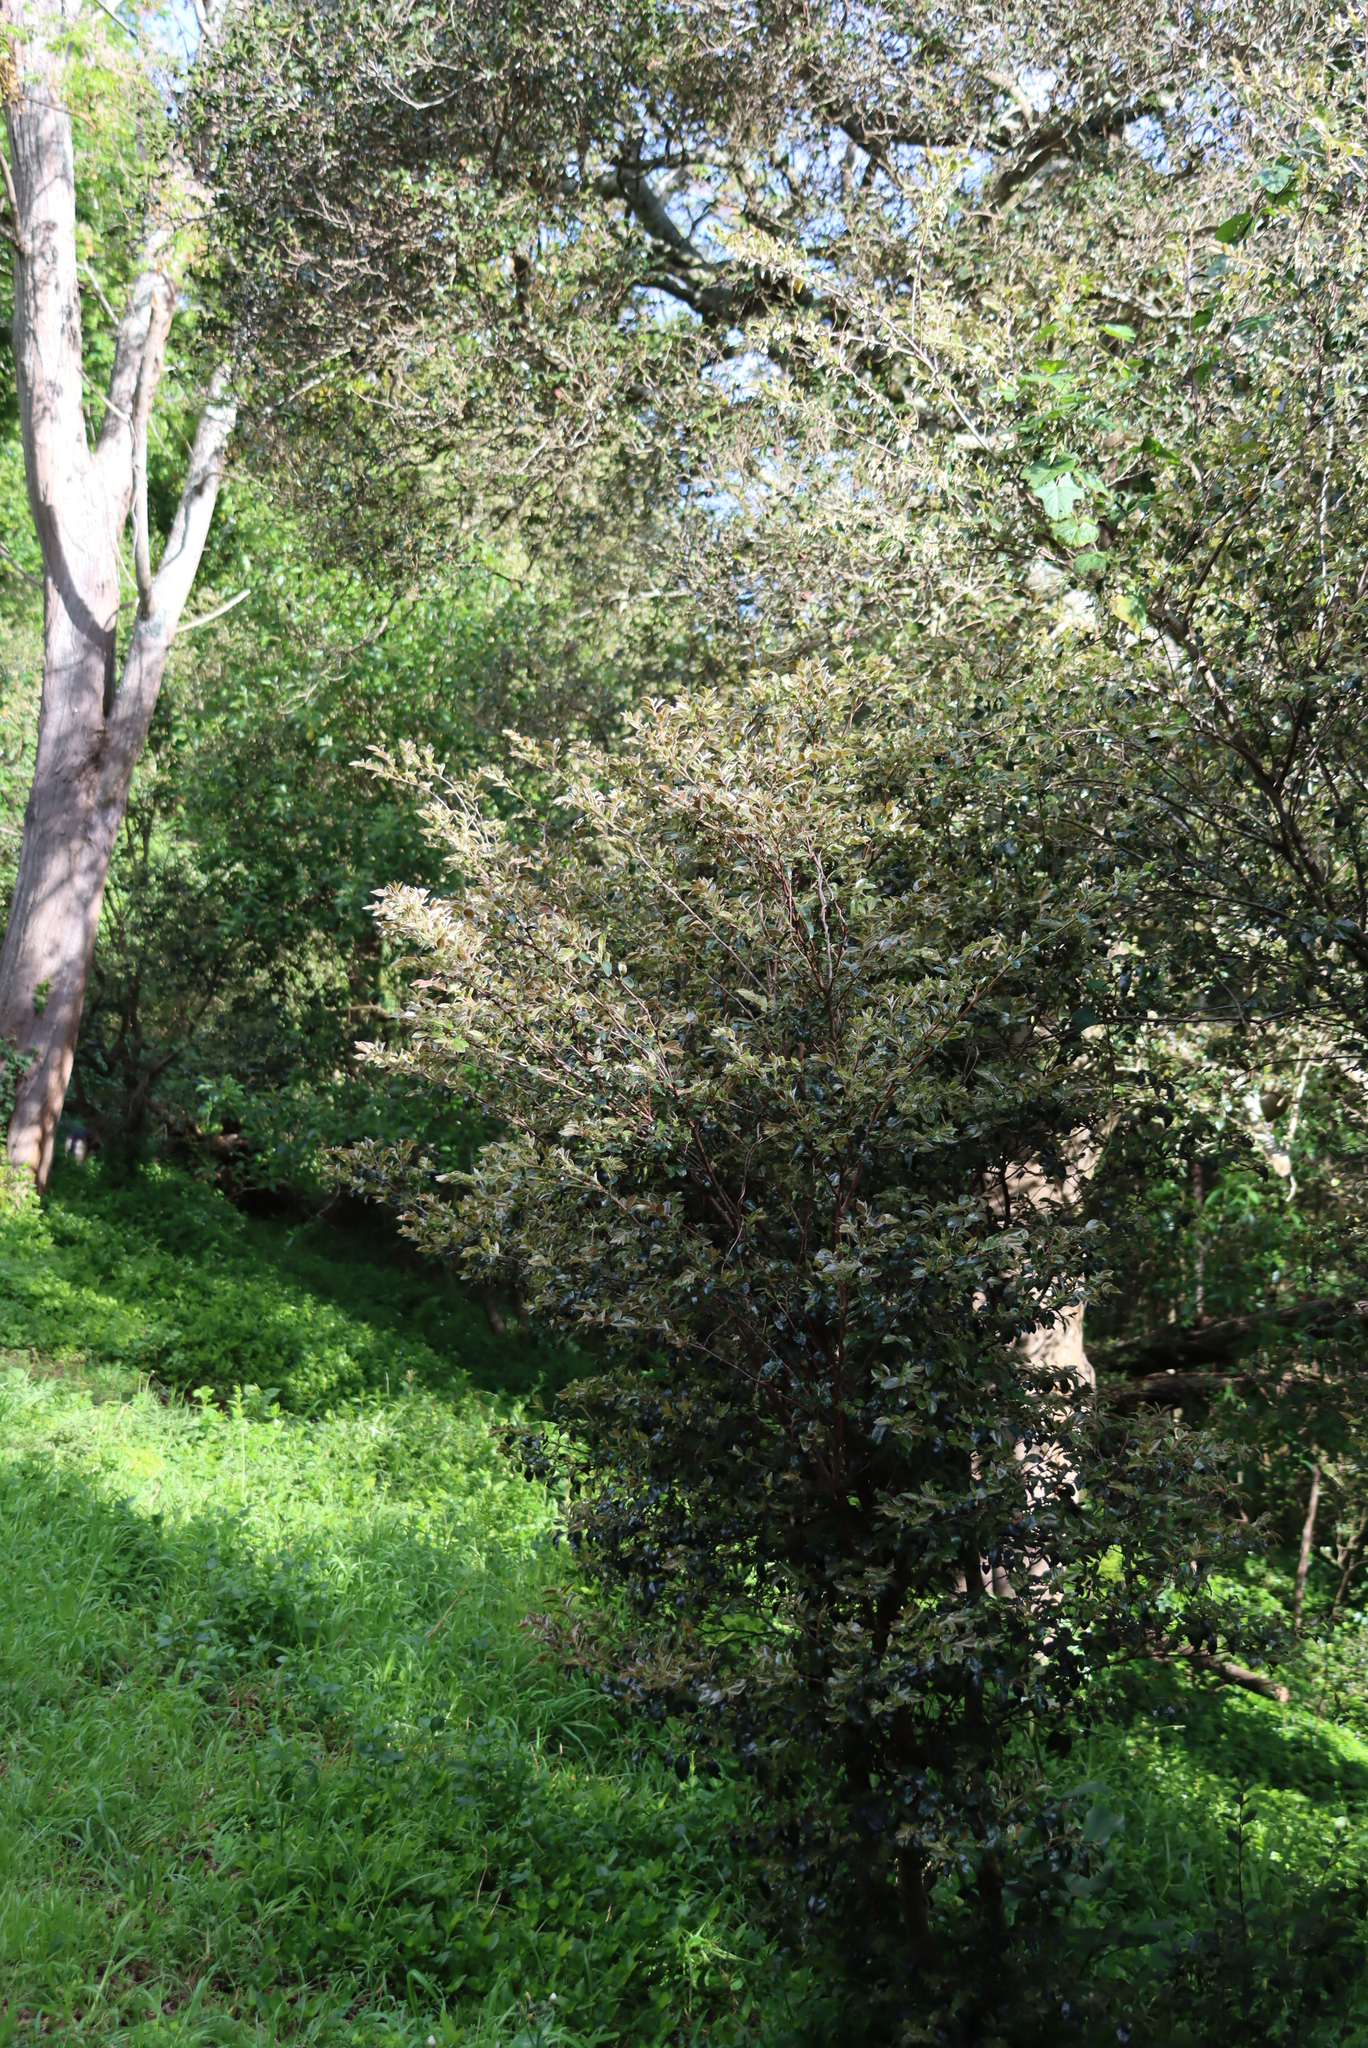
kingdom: Plantae
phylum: Tracheophyta
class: Magnoliopsida
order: Ericales
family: Ebenaceae
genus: Diospyros
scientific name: Diospyros whyteana
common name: Bladder-nut
